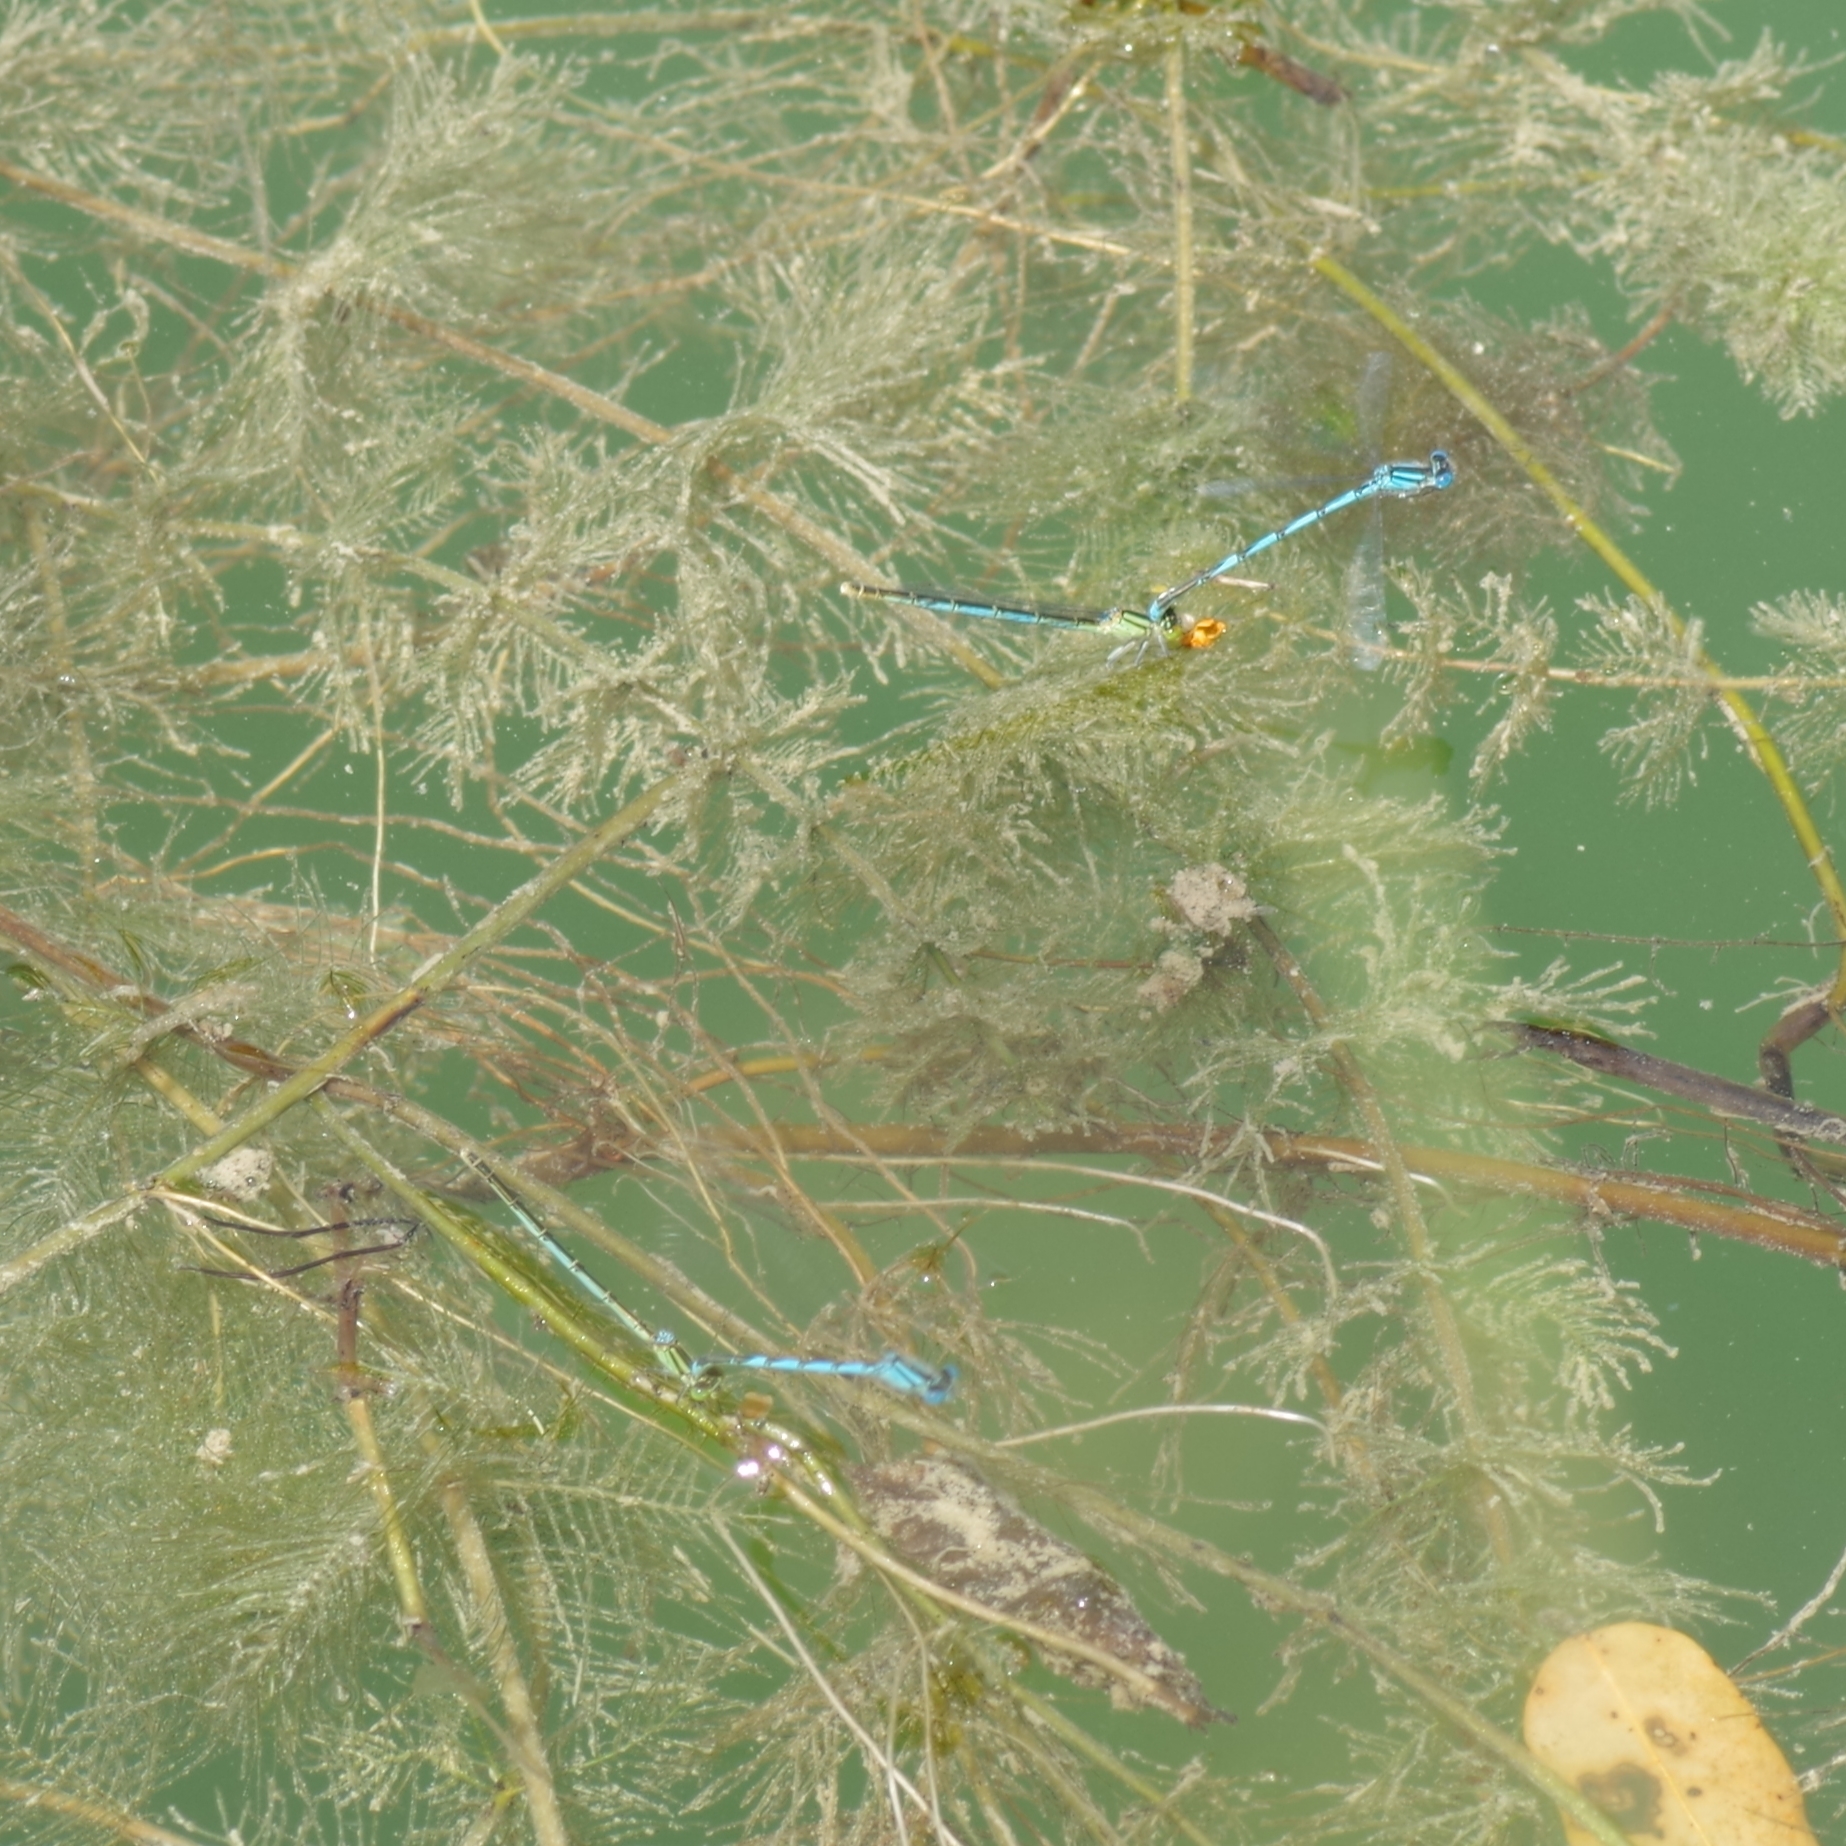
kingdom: Animalia
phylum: Arthropoda
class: Insecta
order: Odonata
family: Coenagrionidae
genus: Erythromma
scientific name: Erythromma lindenii
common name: Blue-eye
